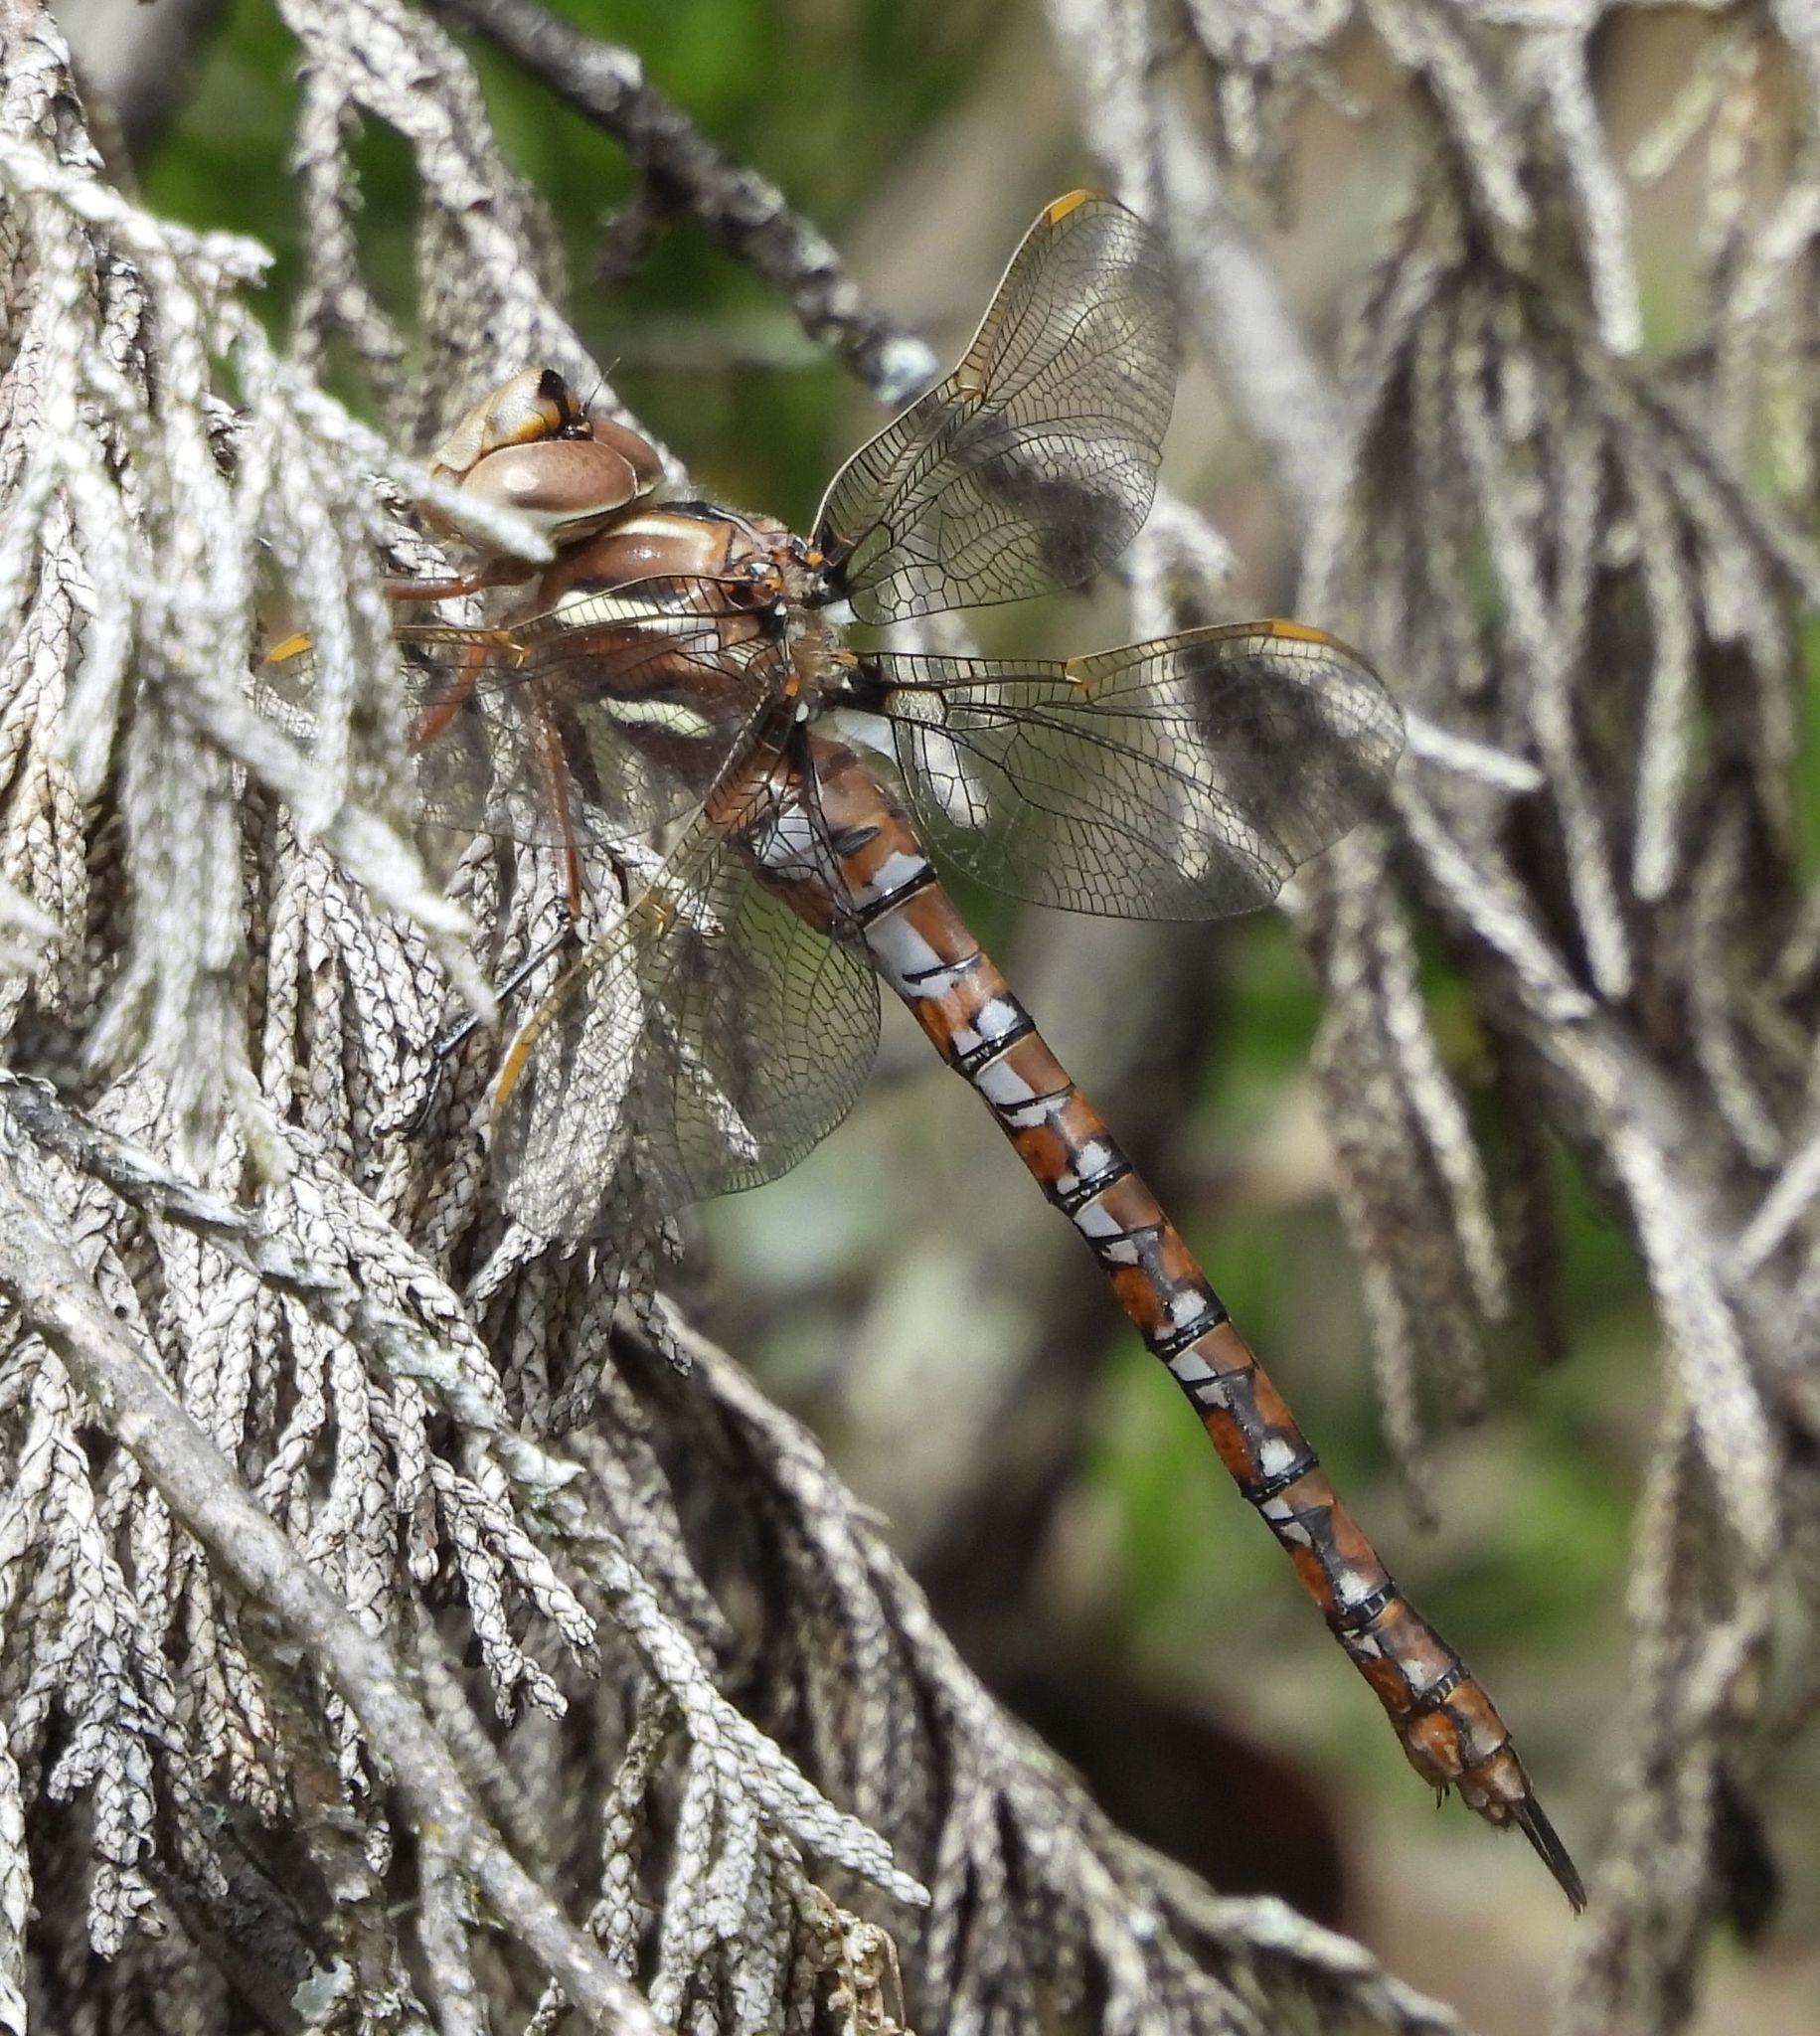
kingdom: Animalia
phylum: Arthropoda
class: Insecta
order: Odonata
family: Aeshnidae
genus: Basiaeschna
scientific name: Basiaeschna janata
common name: Springtime darner
